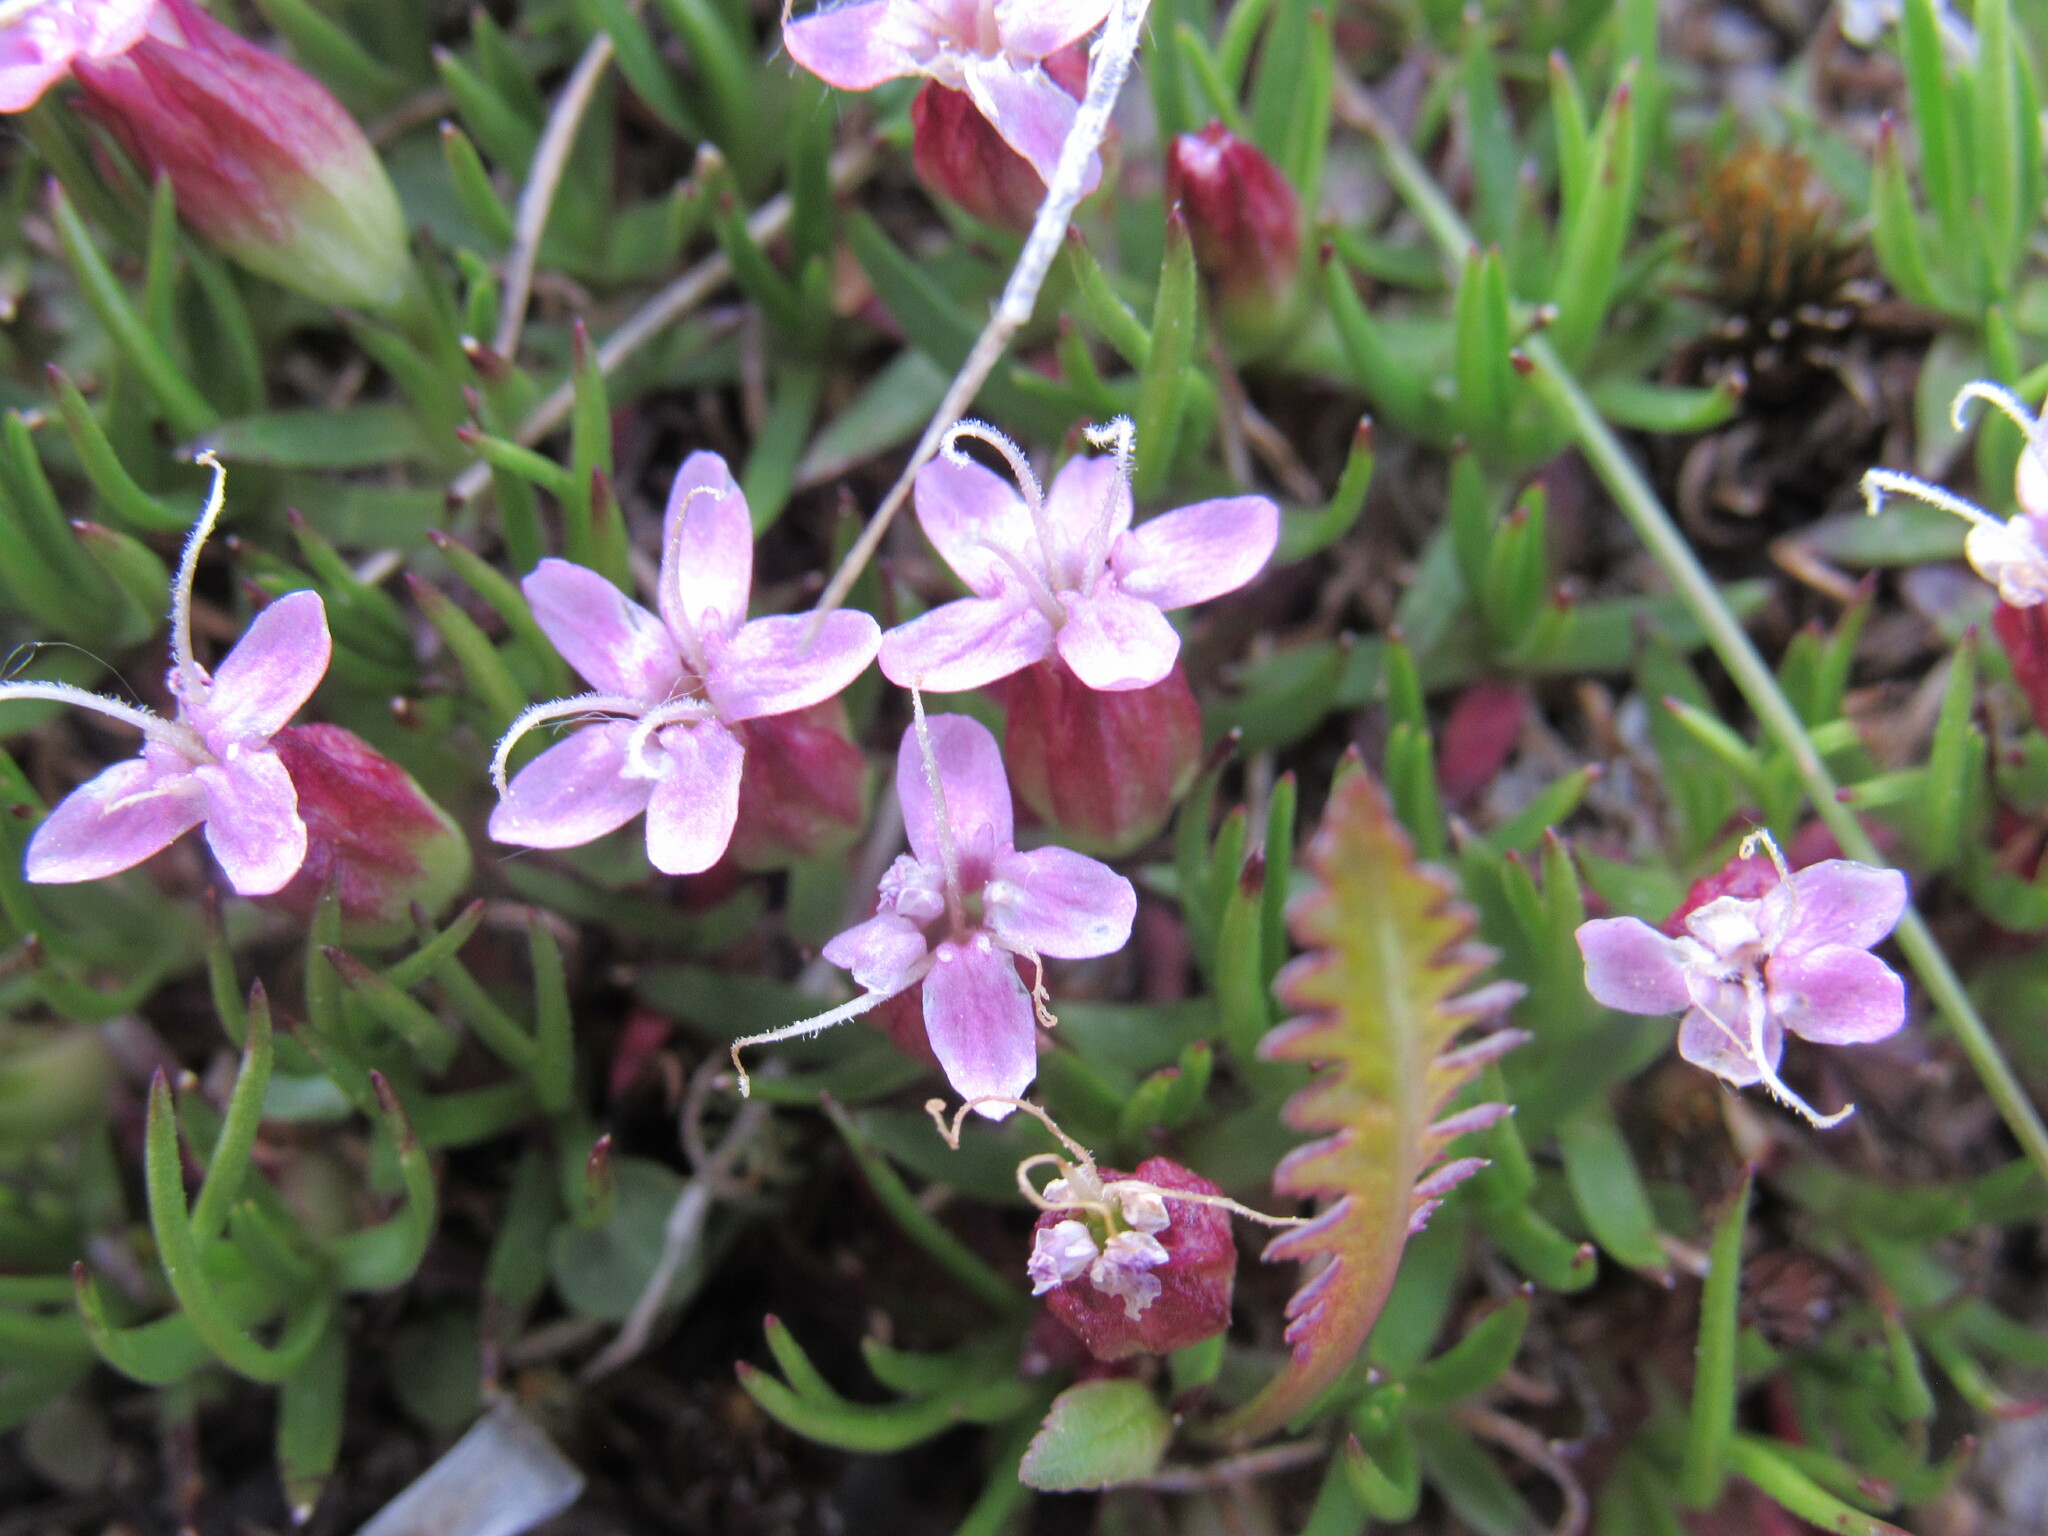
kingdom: Plantae
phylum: Tracheophyta
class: Magnoliopsida
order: Caryophyllales
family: Caryophyllaceae
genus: Silene
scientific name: Silene acaulis
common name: Moss campion
